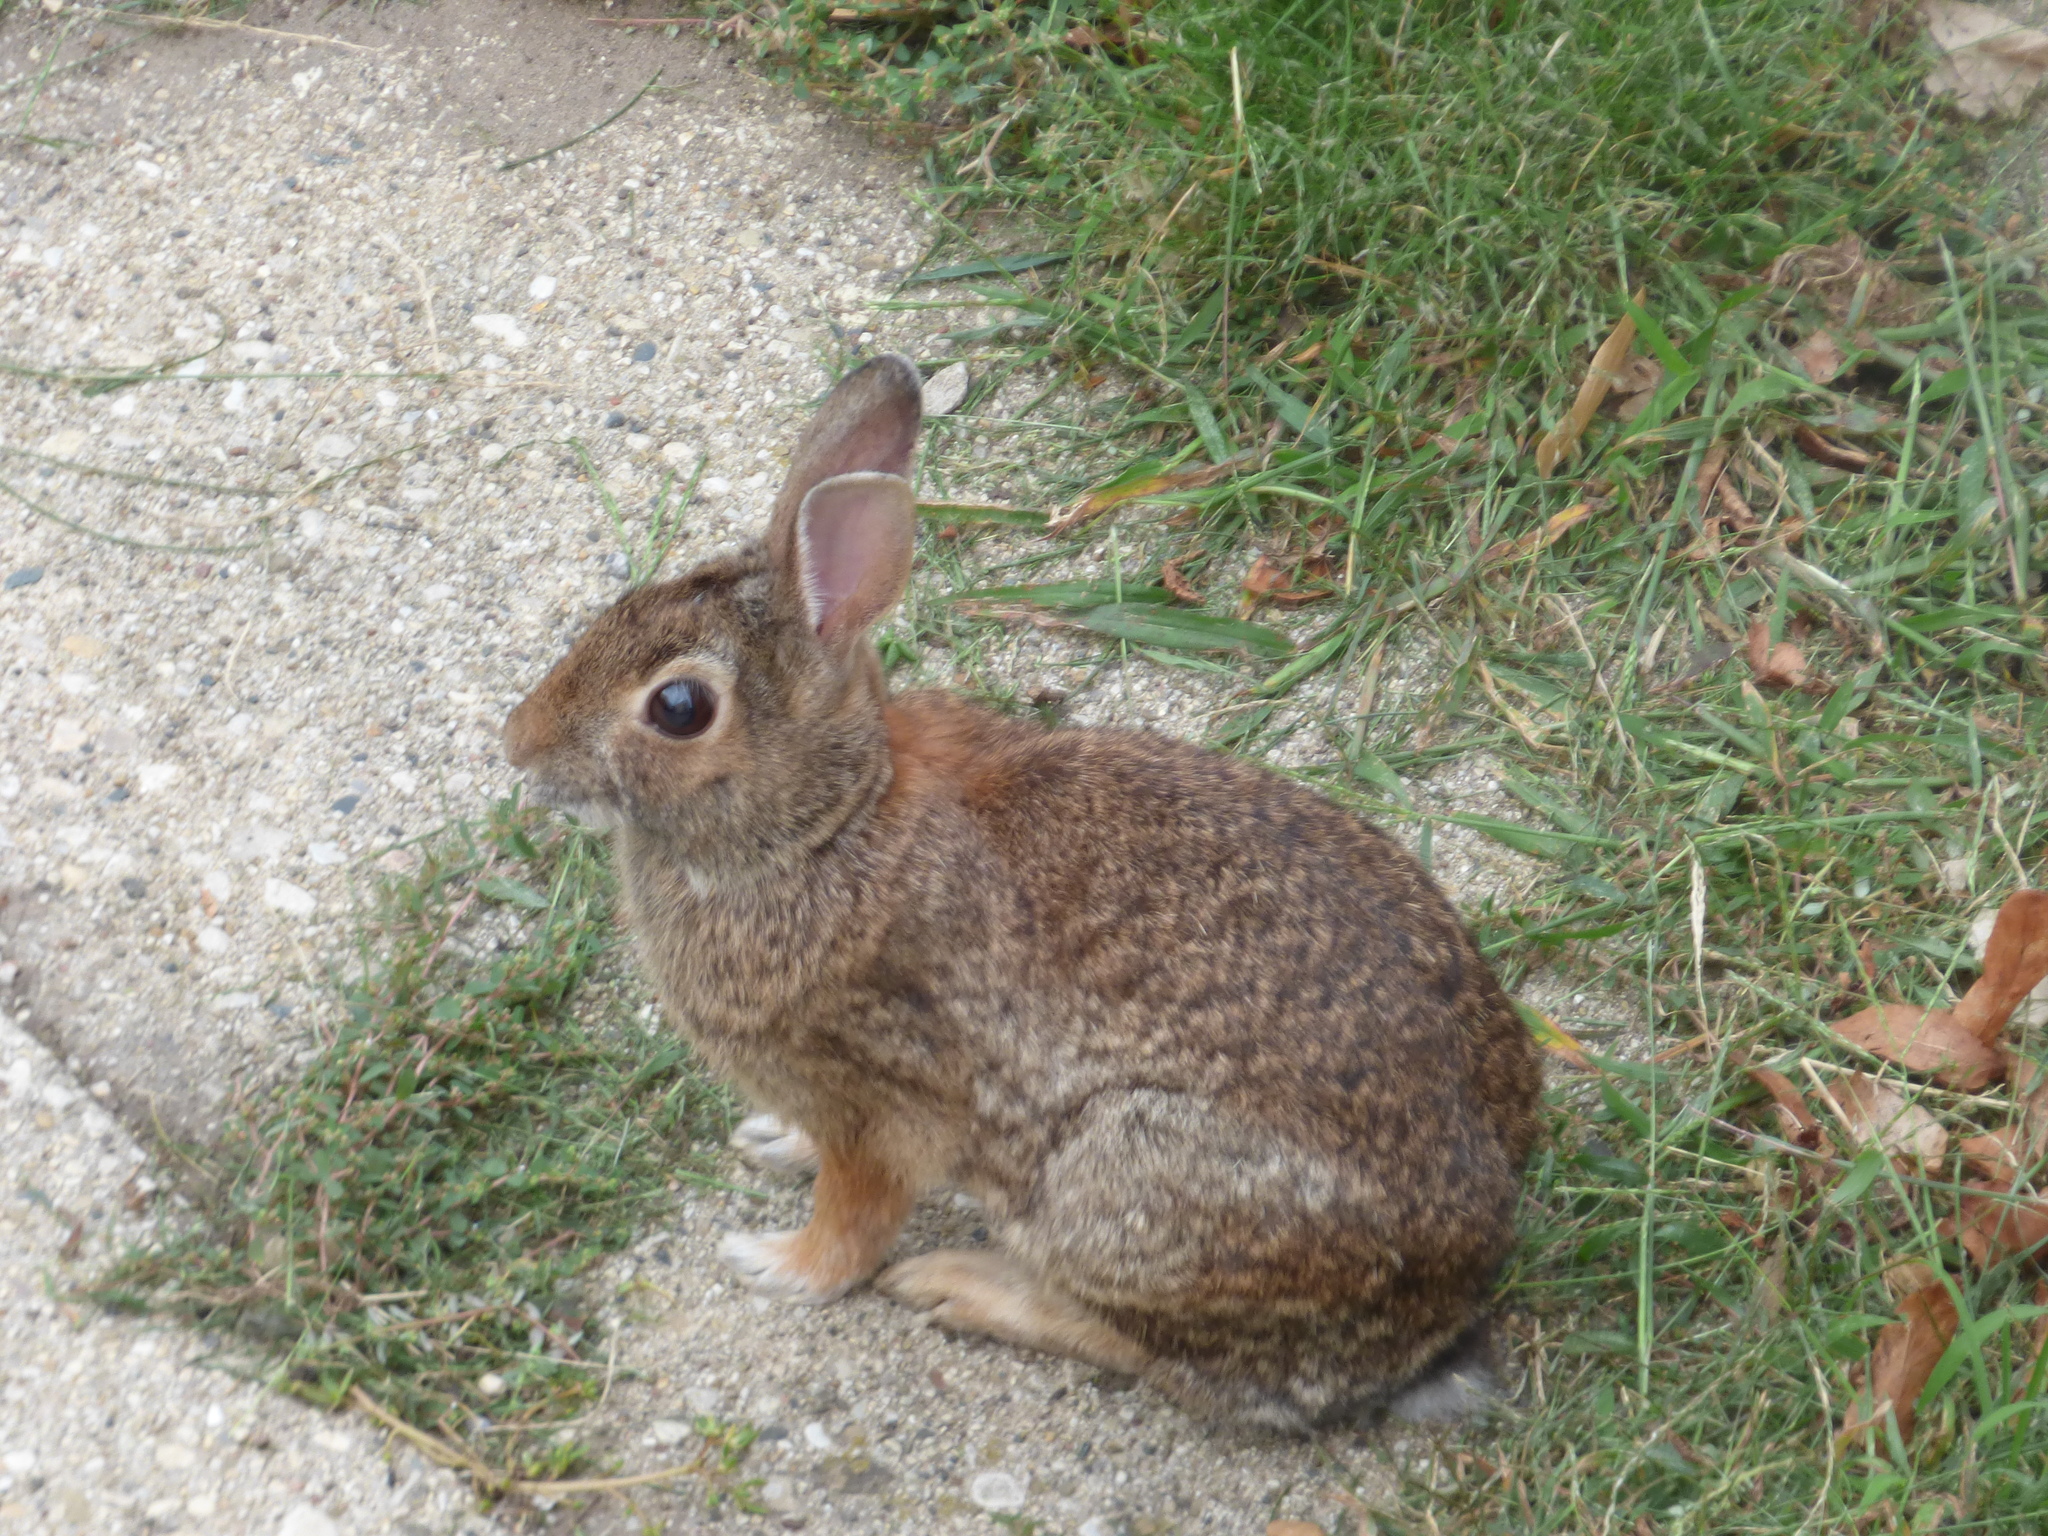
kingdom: Animalia
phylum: Chordata
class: Mammalia
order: Lagomorpha
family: Leporidae
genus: Sylvilagus
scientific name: Sylvilagus floridanus
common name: Eastern cottontail
